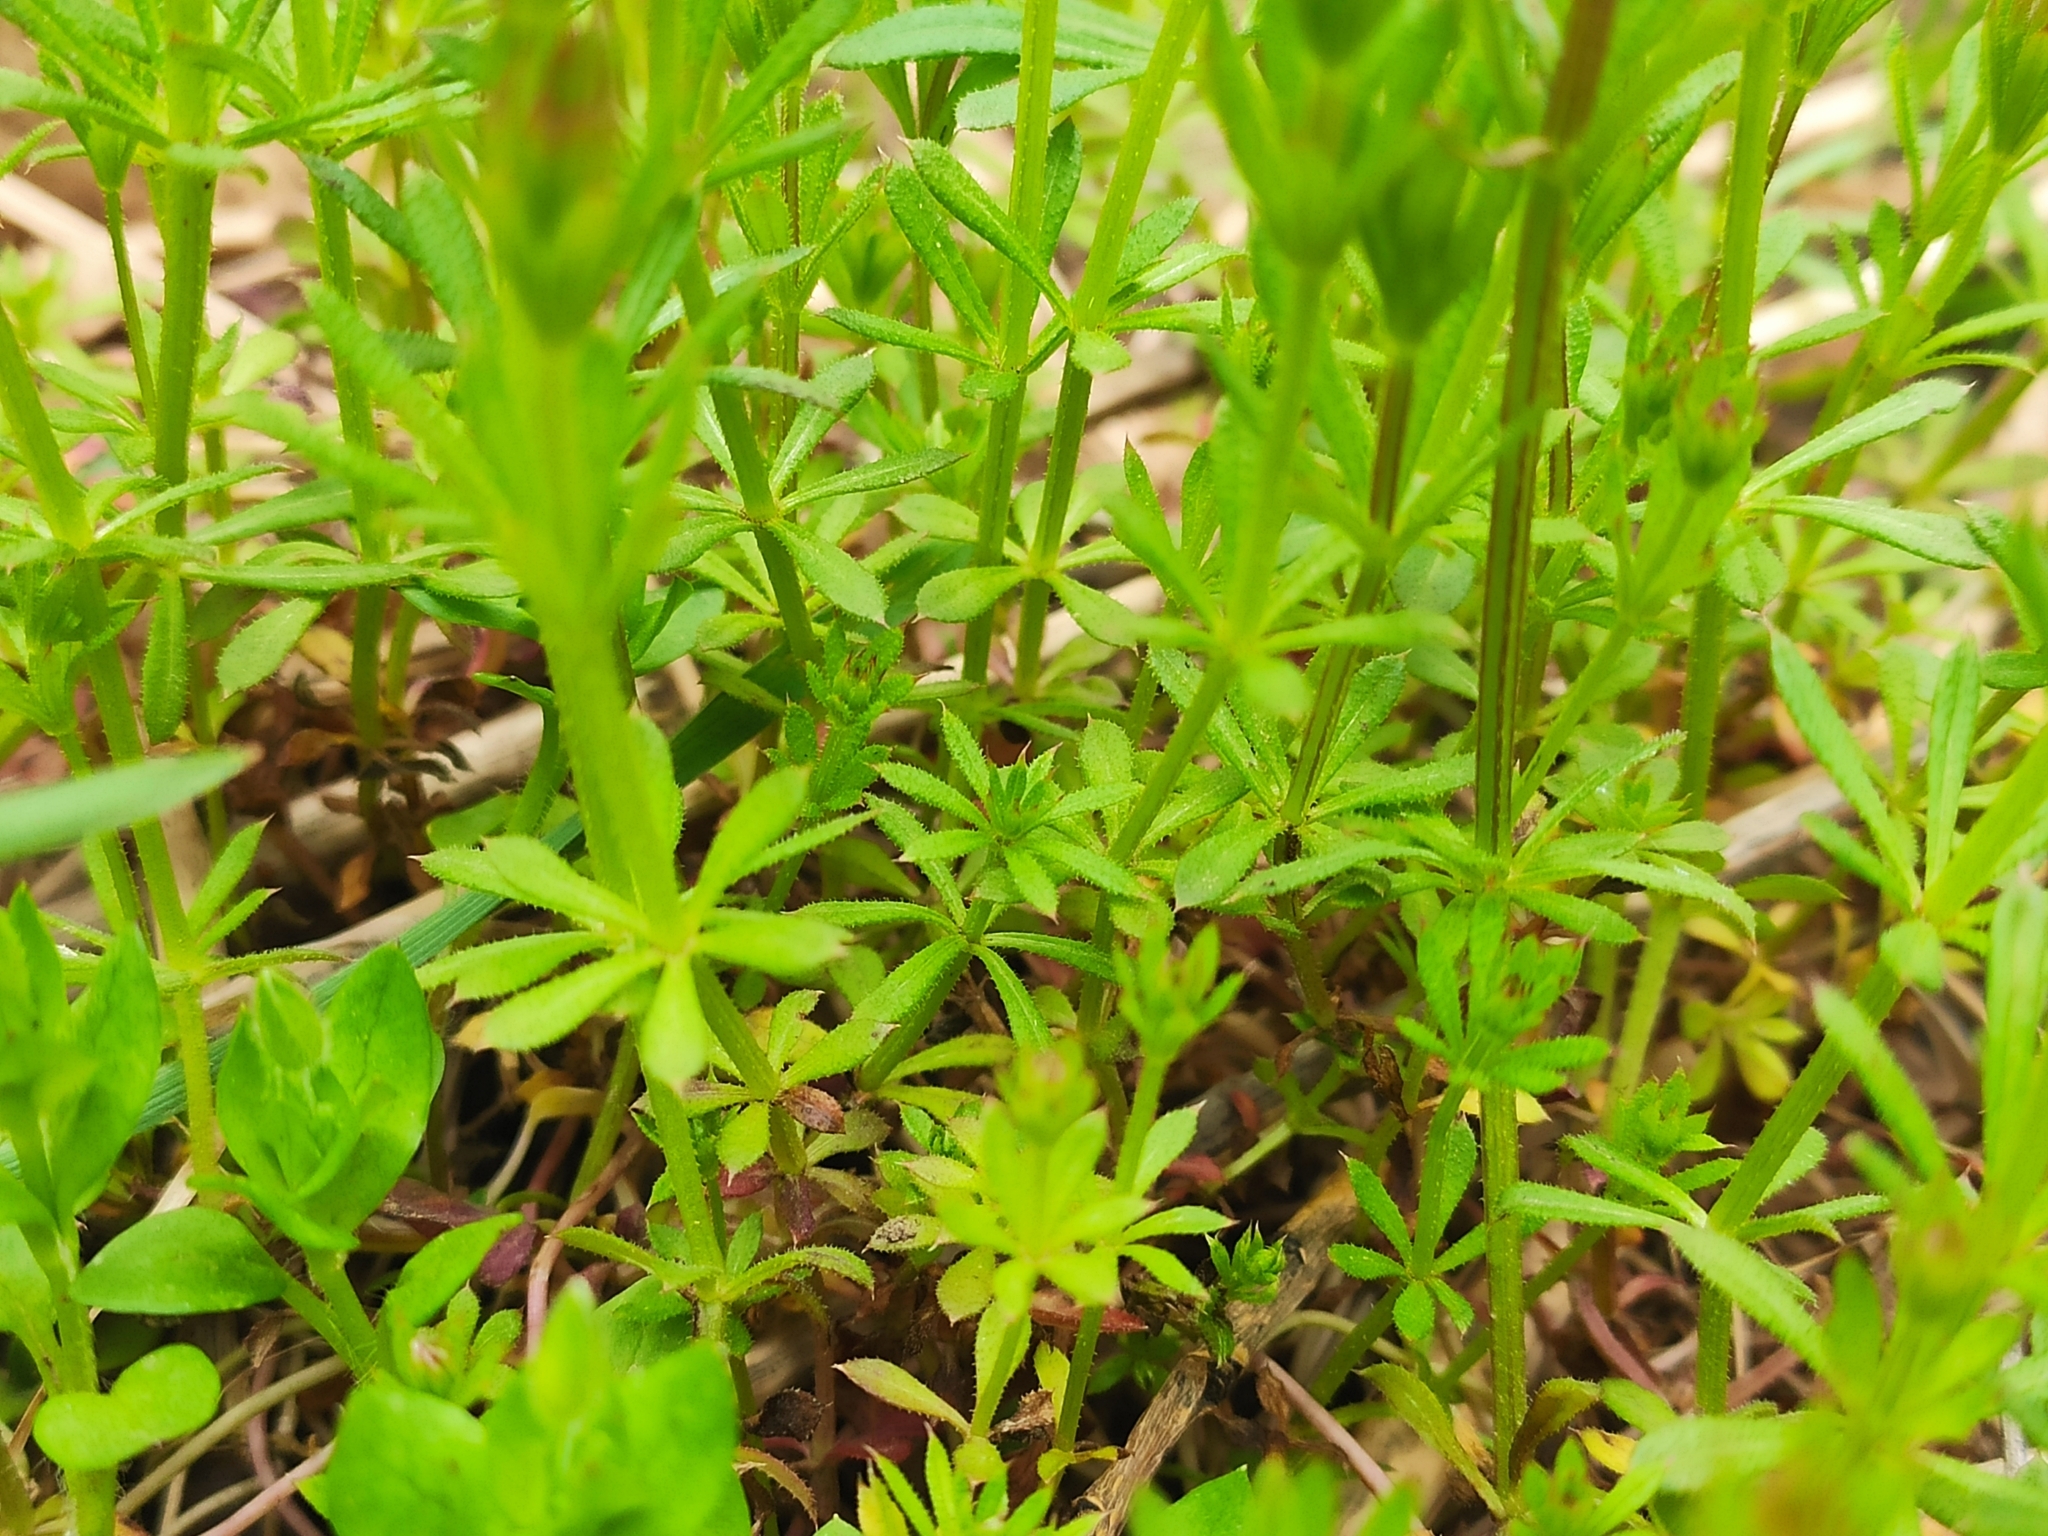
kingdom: Plantae
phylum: Tracheophyta
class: Magnoliopsida
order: Gentianales
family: Rubiaceae
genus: Galium
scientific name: Galium aparine
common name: Cleavers
